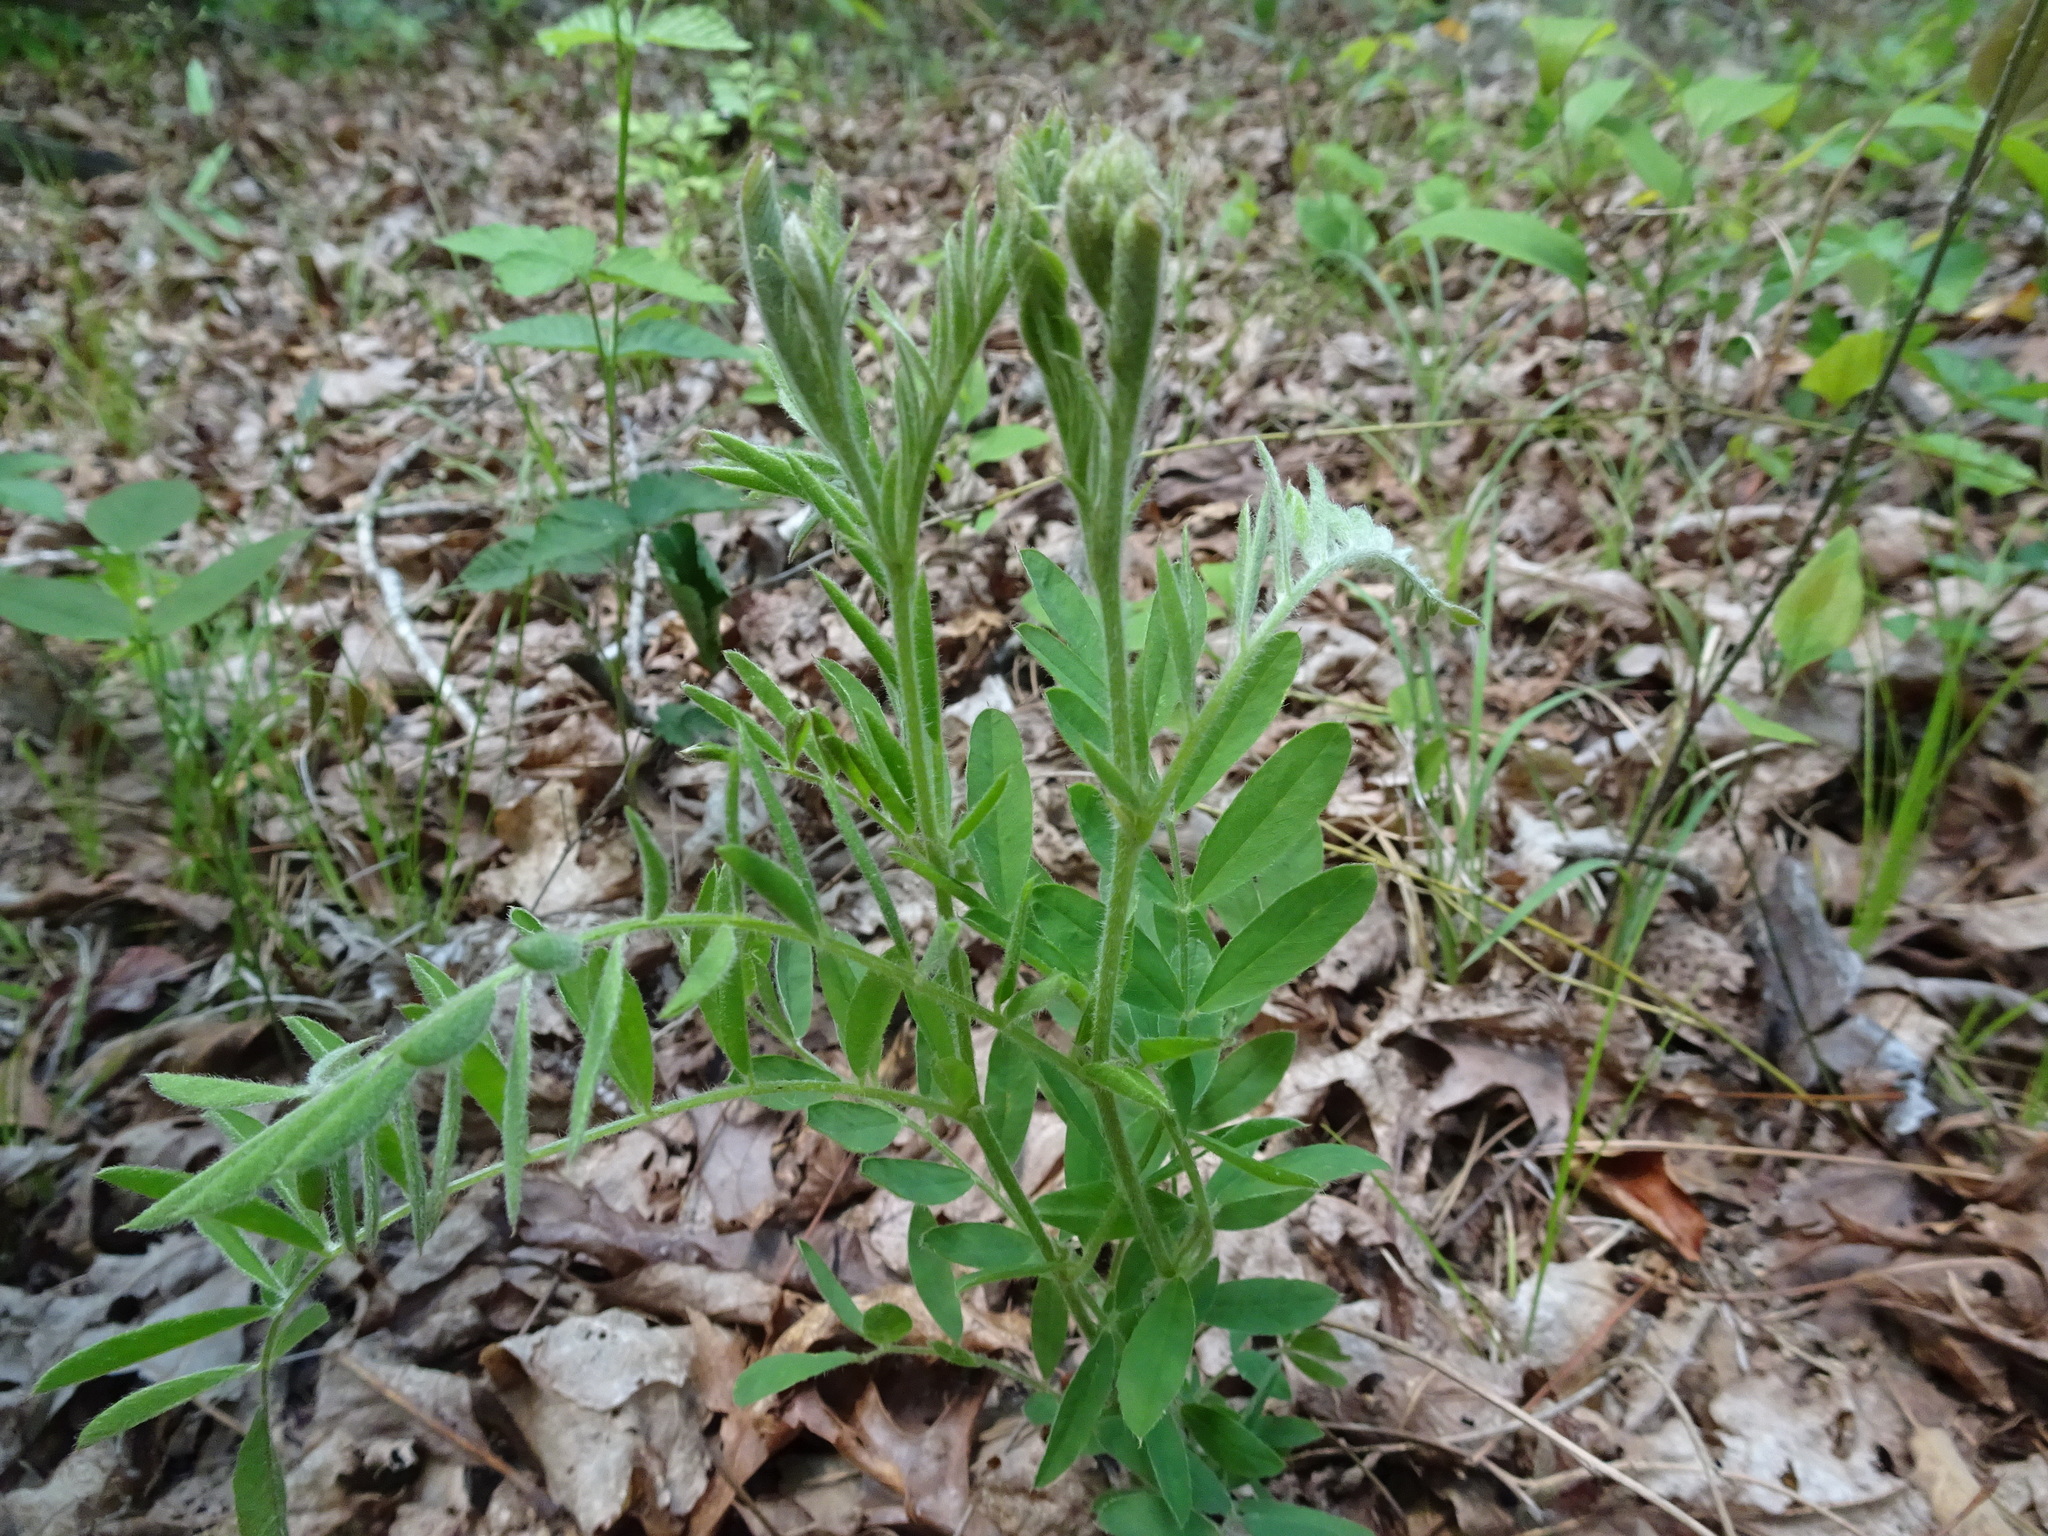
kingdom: Plantae
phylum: Tracheophyta
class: Magnoliopsida
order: Fabales
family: Fabaceae
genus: Tephrosia
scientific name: Tephrosia virginiana
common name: Rabbit-pea
